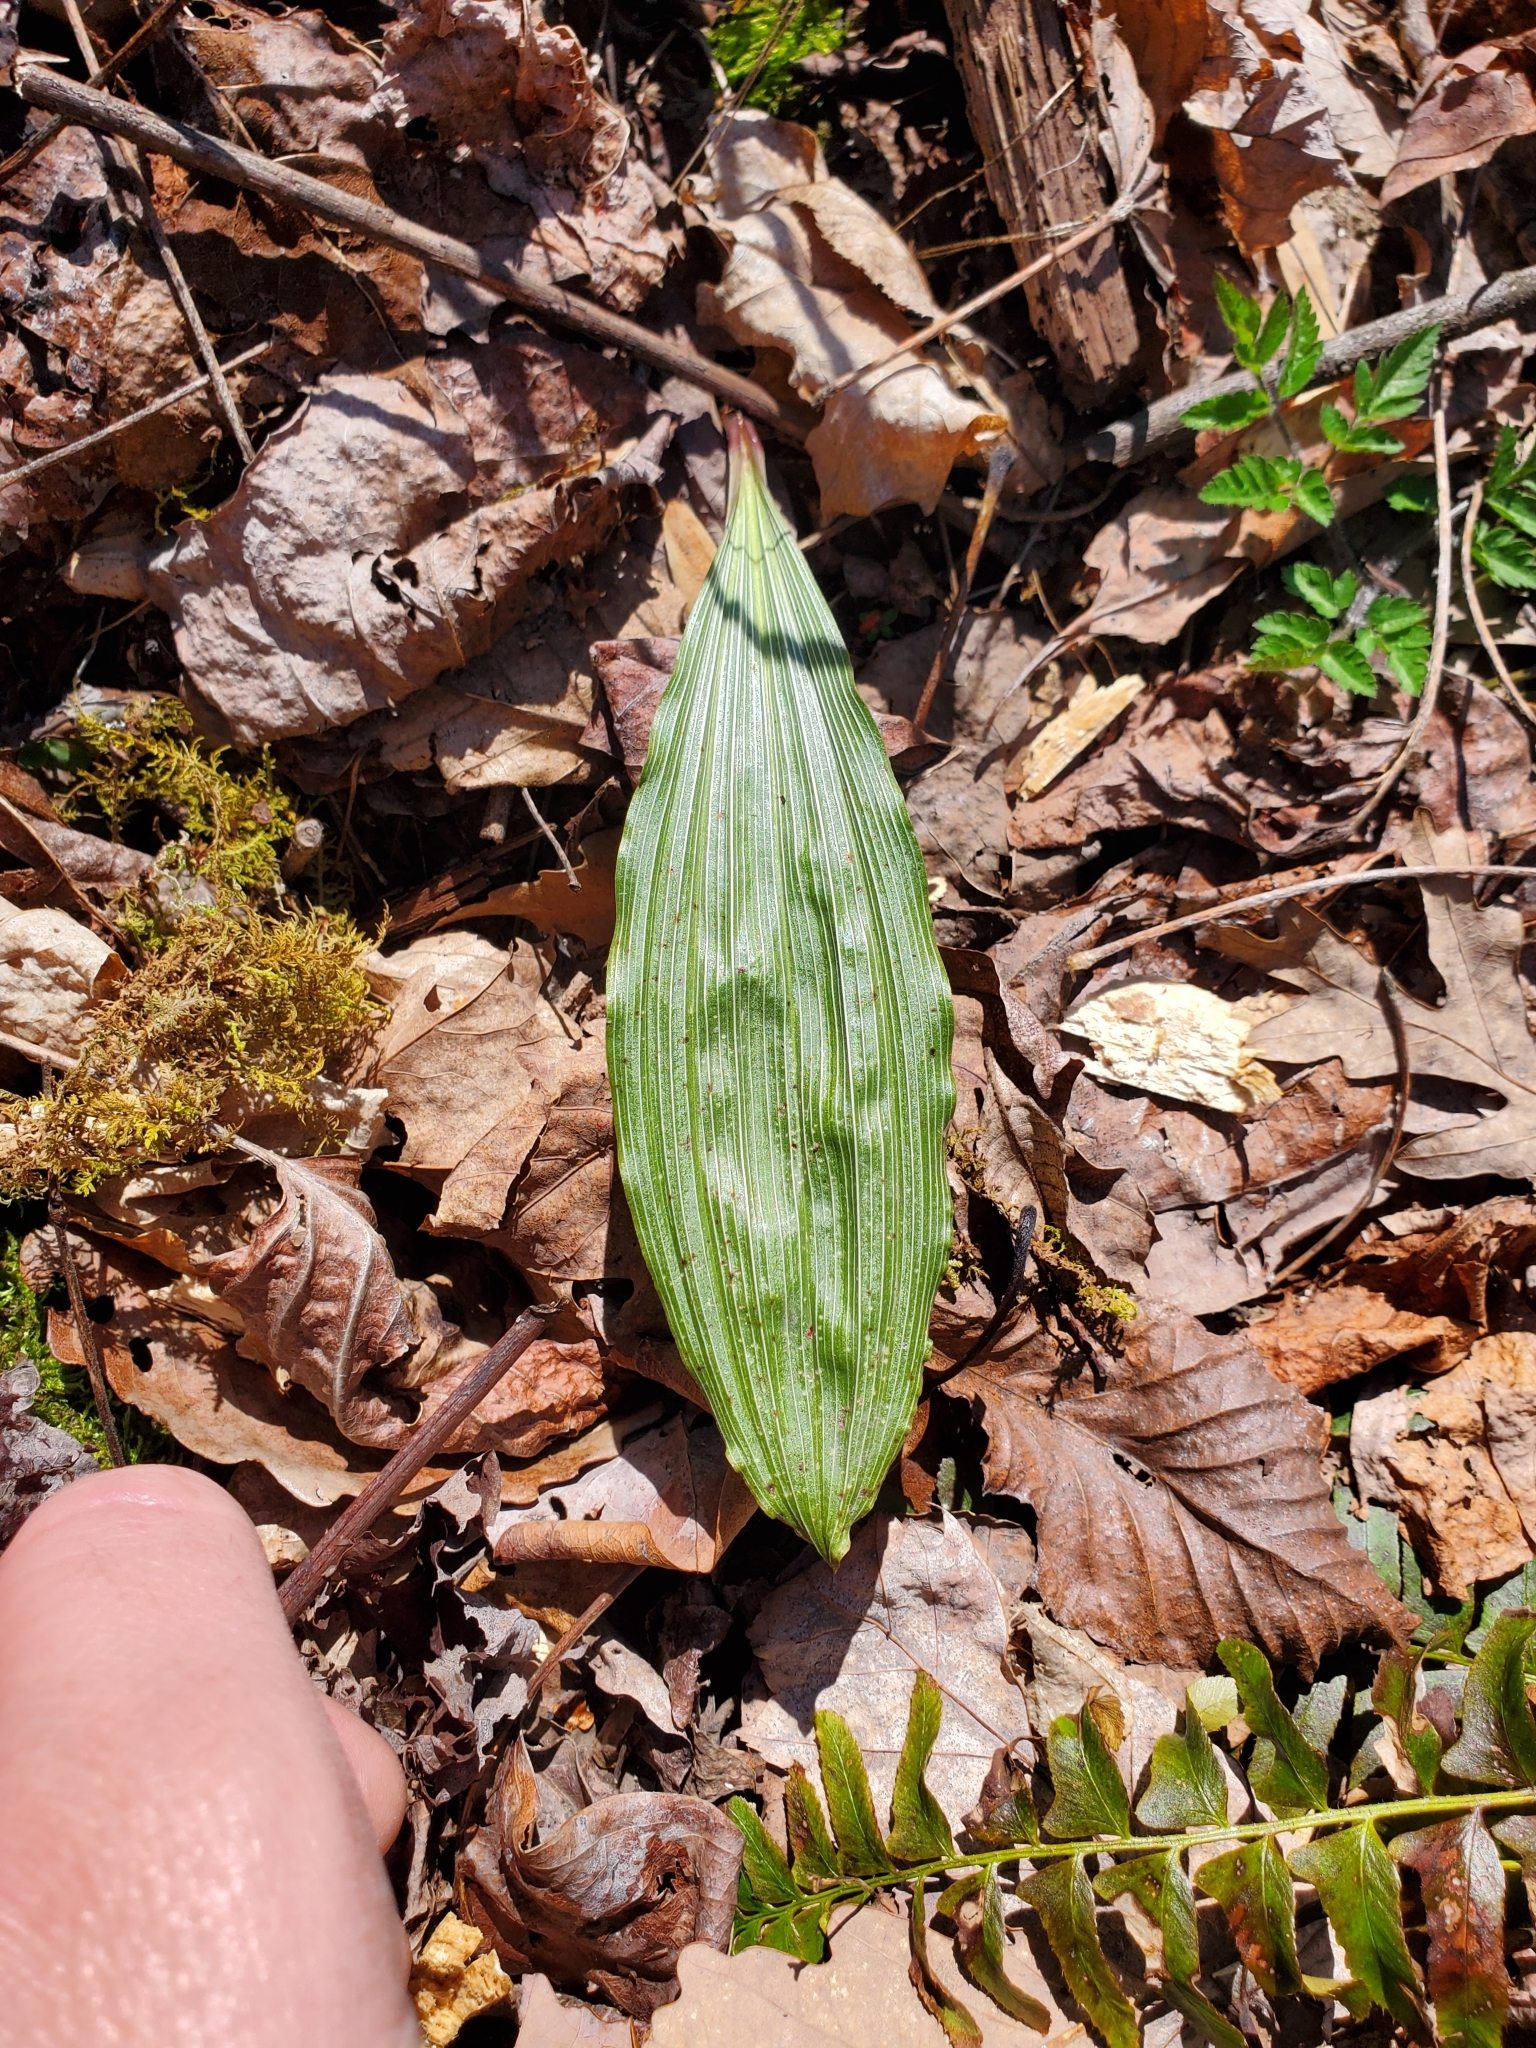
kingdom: Plantae
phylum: Tracheophyta
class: Liliopsida
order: Asparagales
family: Orchidaceae
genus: Aplectrum
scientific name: Aplectrum hyemale
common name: Adam-and-eve
